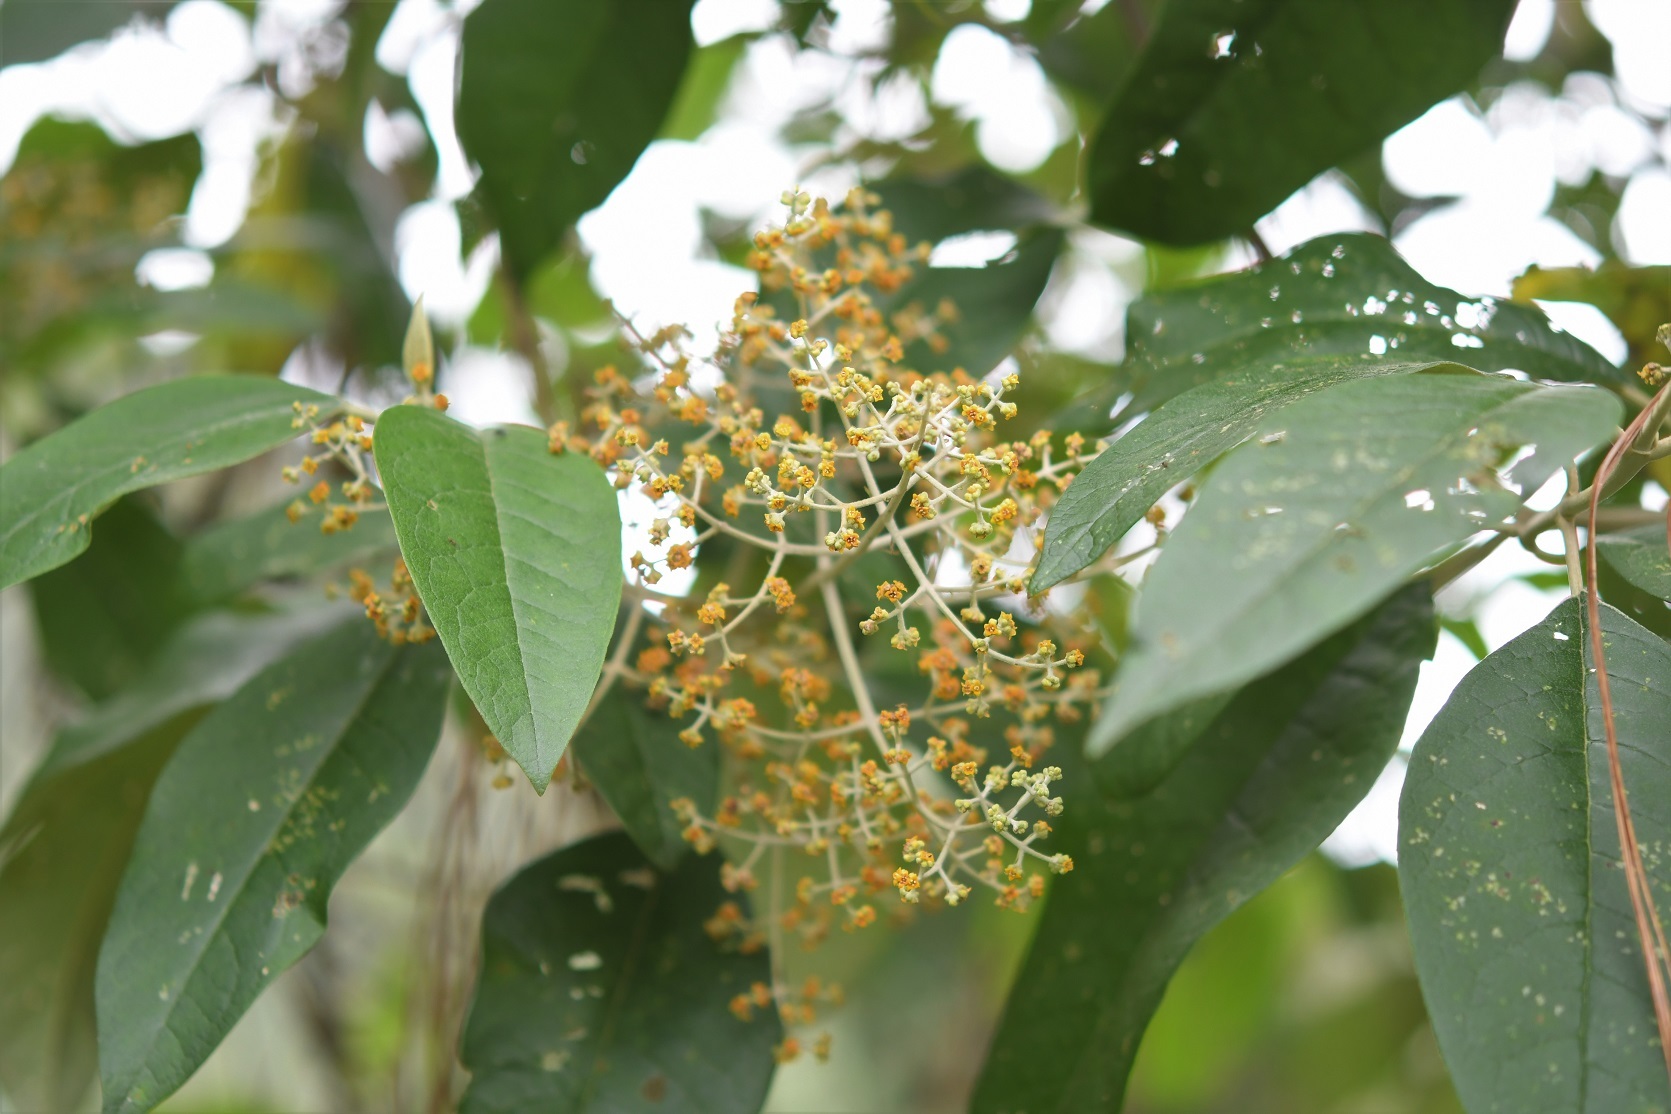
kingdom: Plantae
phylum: Tracheophyta
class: Magnoliopsida
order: Lamiales
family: Scrophulariaceae
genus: Buddleja
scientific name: Buddleja cordata
